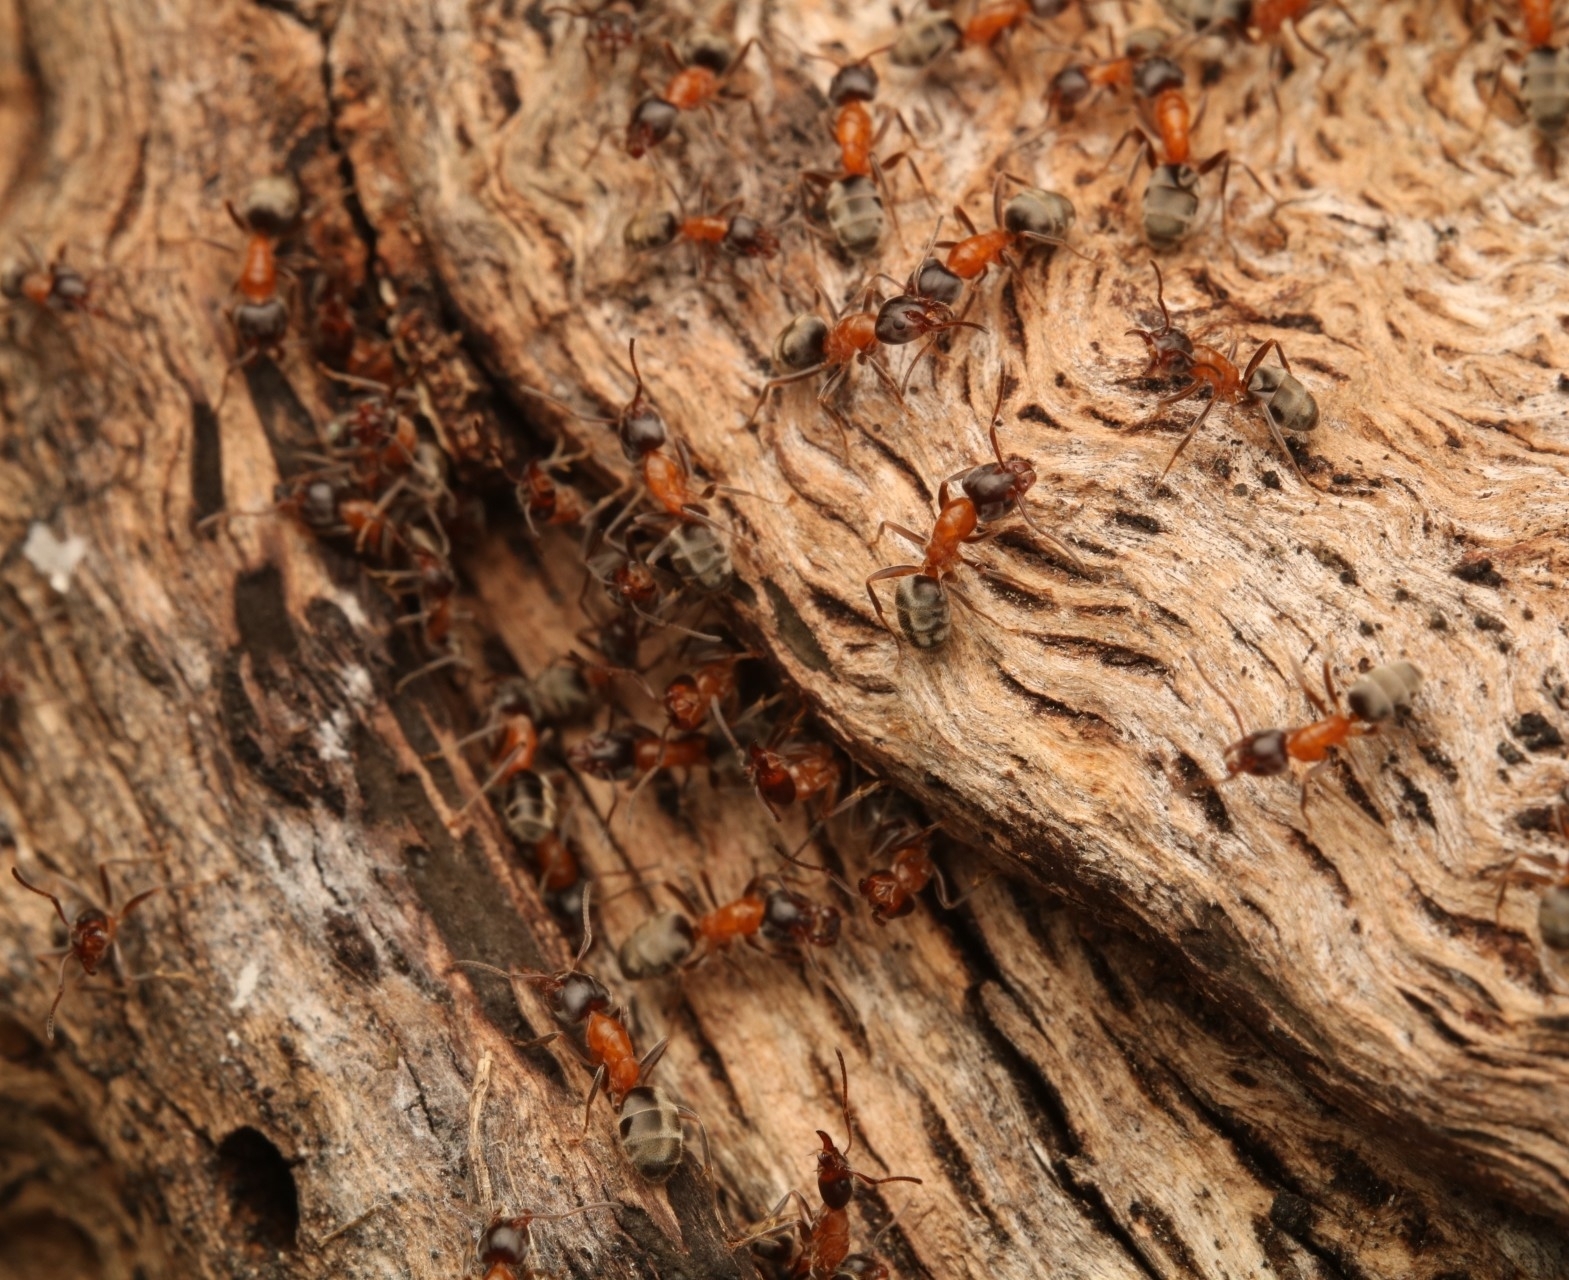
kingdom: Animalia
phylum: Arthropoda
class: Insecta
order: Hymenoptera
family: Formicidae
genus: Liometopum
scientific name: Liometopum occidentale
